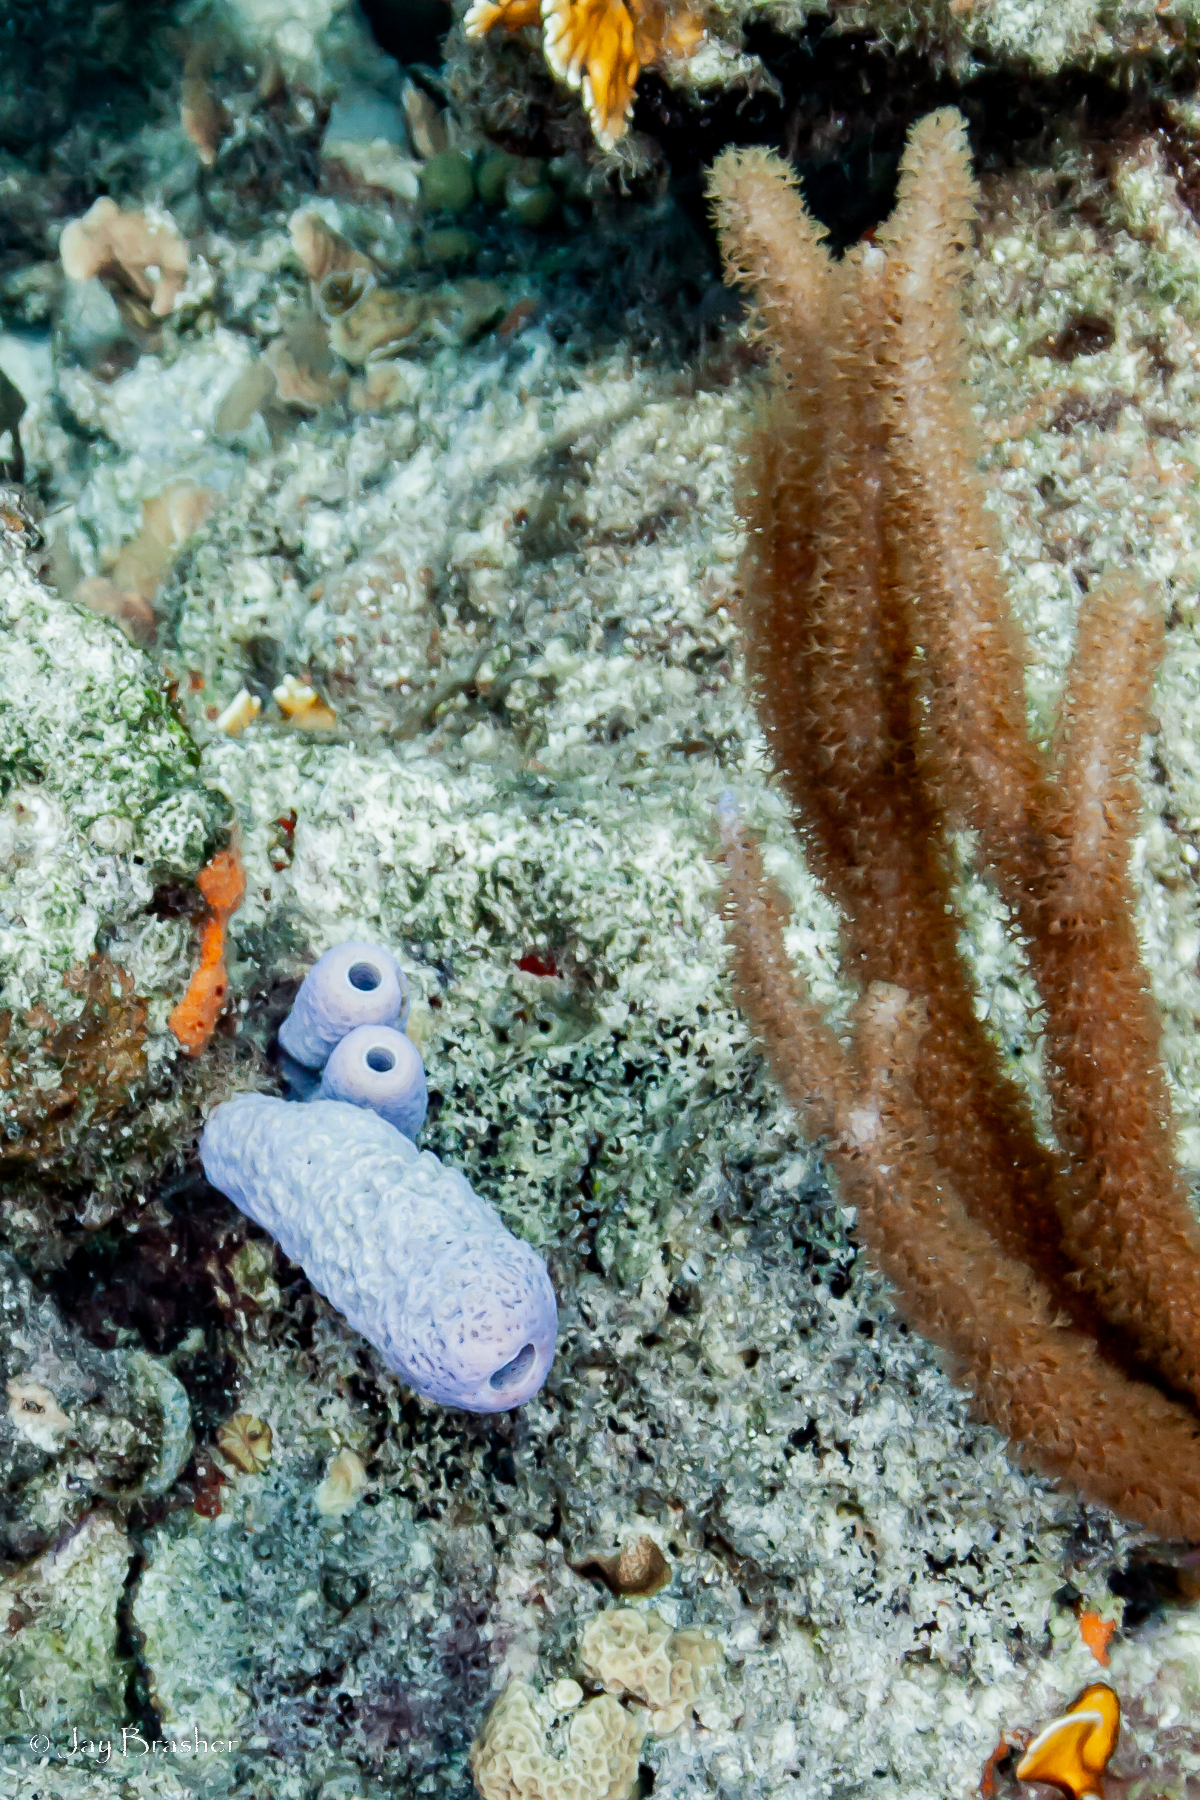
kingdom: Animalia
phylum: Porifera
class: Demospongiae
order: Verongiida
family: Aplysinidae
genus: Aplysina
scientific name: Aplysina archeri
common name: Stove-pipe sponge
